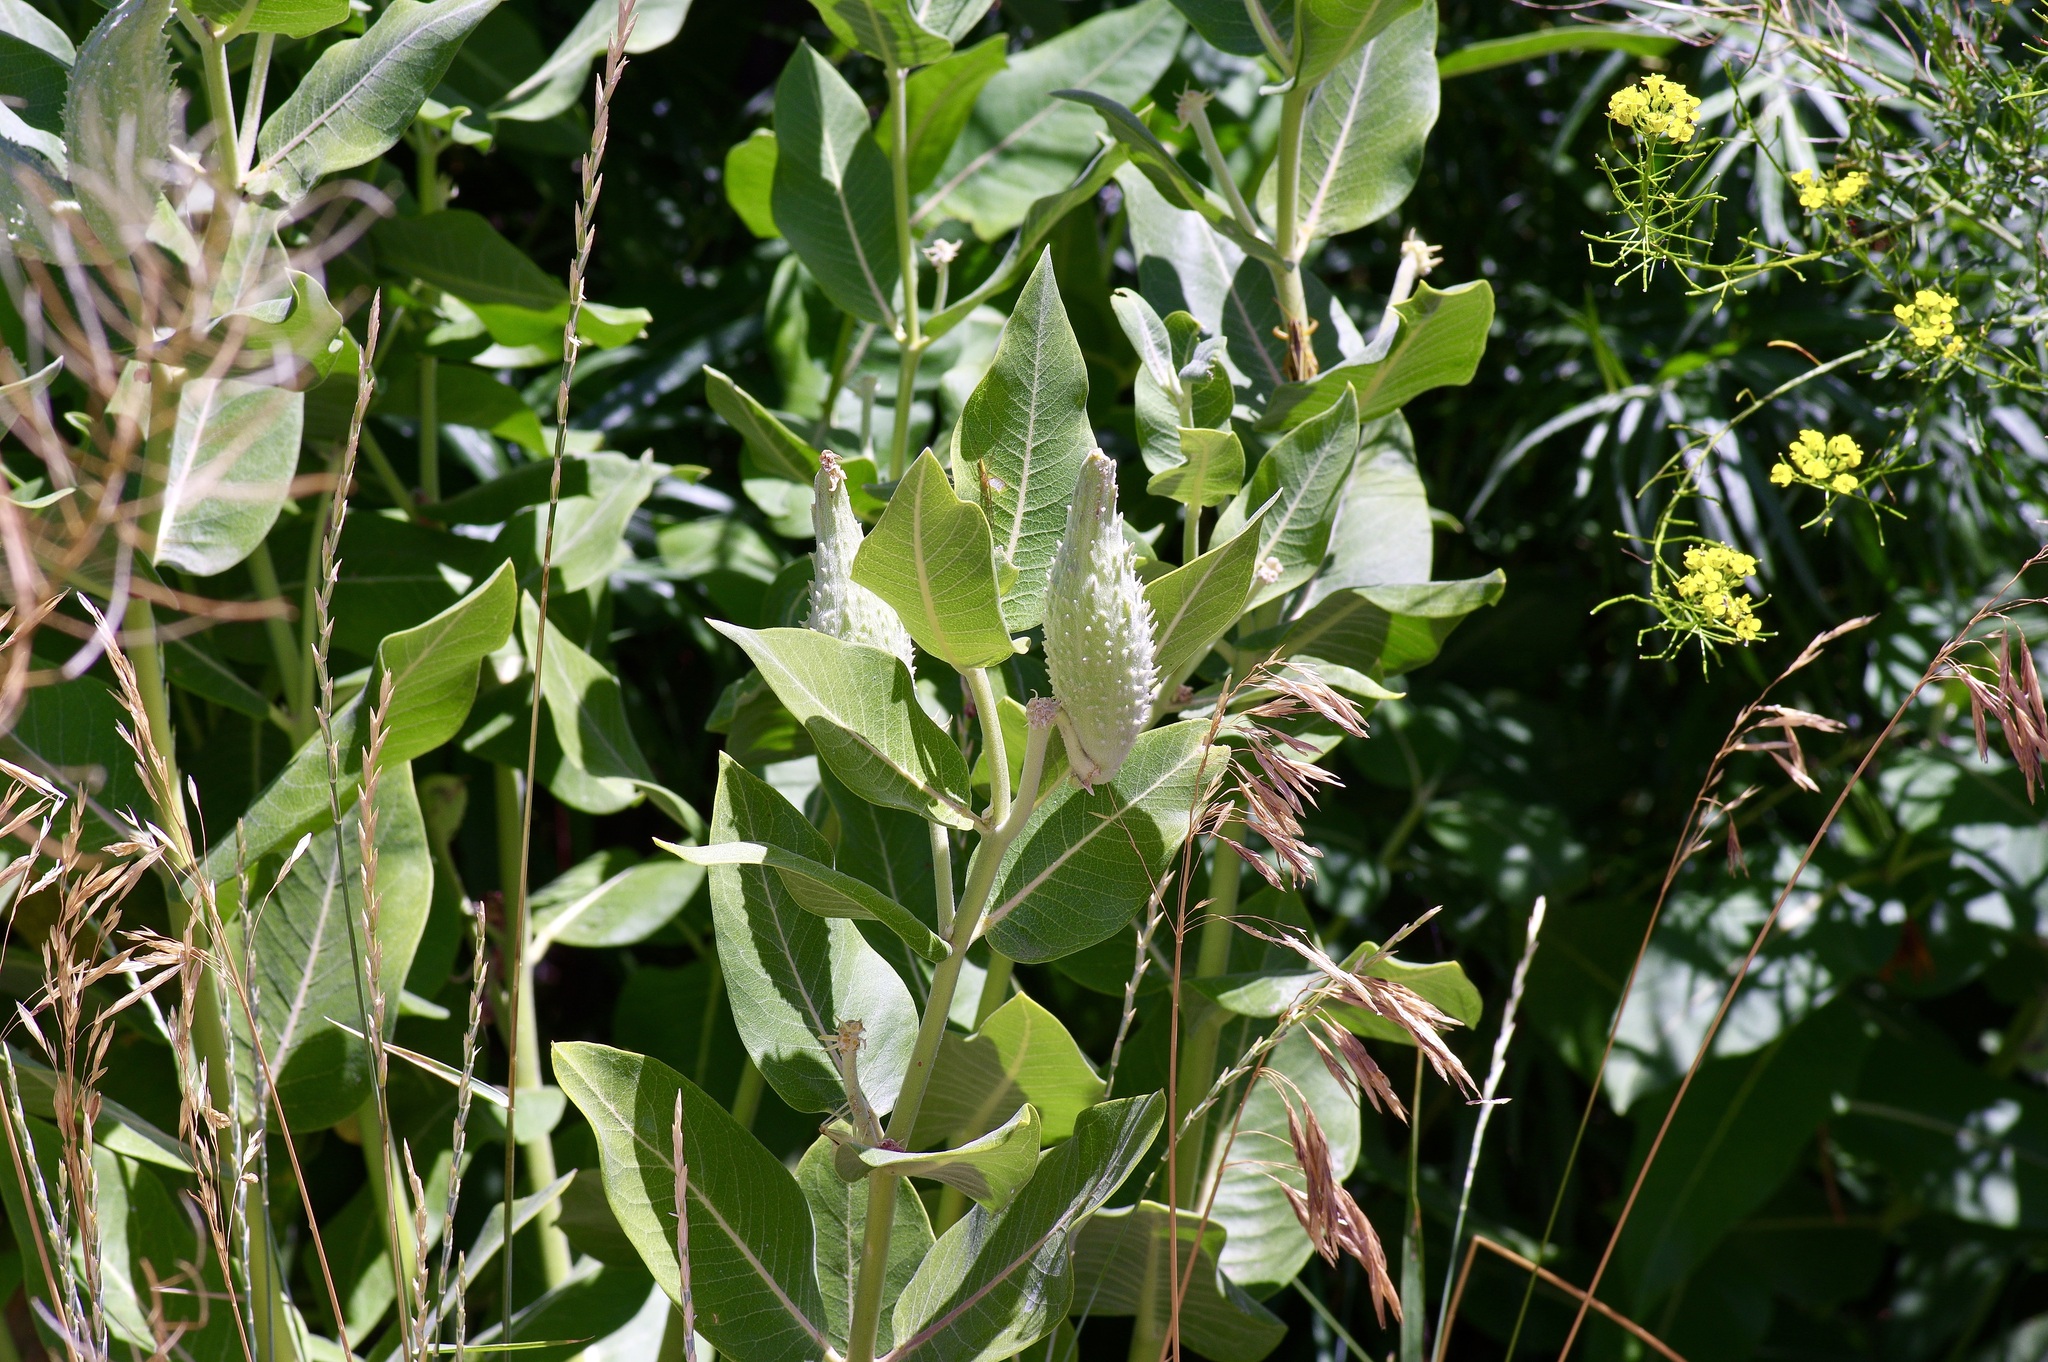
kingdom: Plantae
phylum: Tracheophyta
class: Magnoliopsida
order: Gentianales
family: Apocynaceae
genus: Asclepias
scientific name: Asclepias speciosa
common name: Showy milkweed
